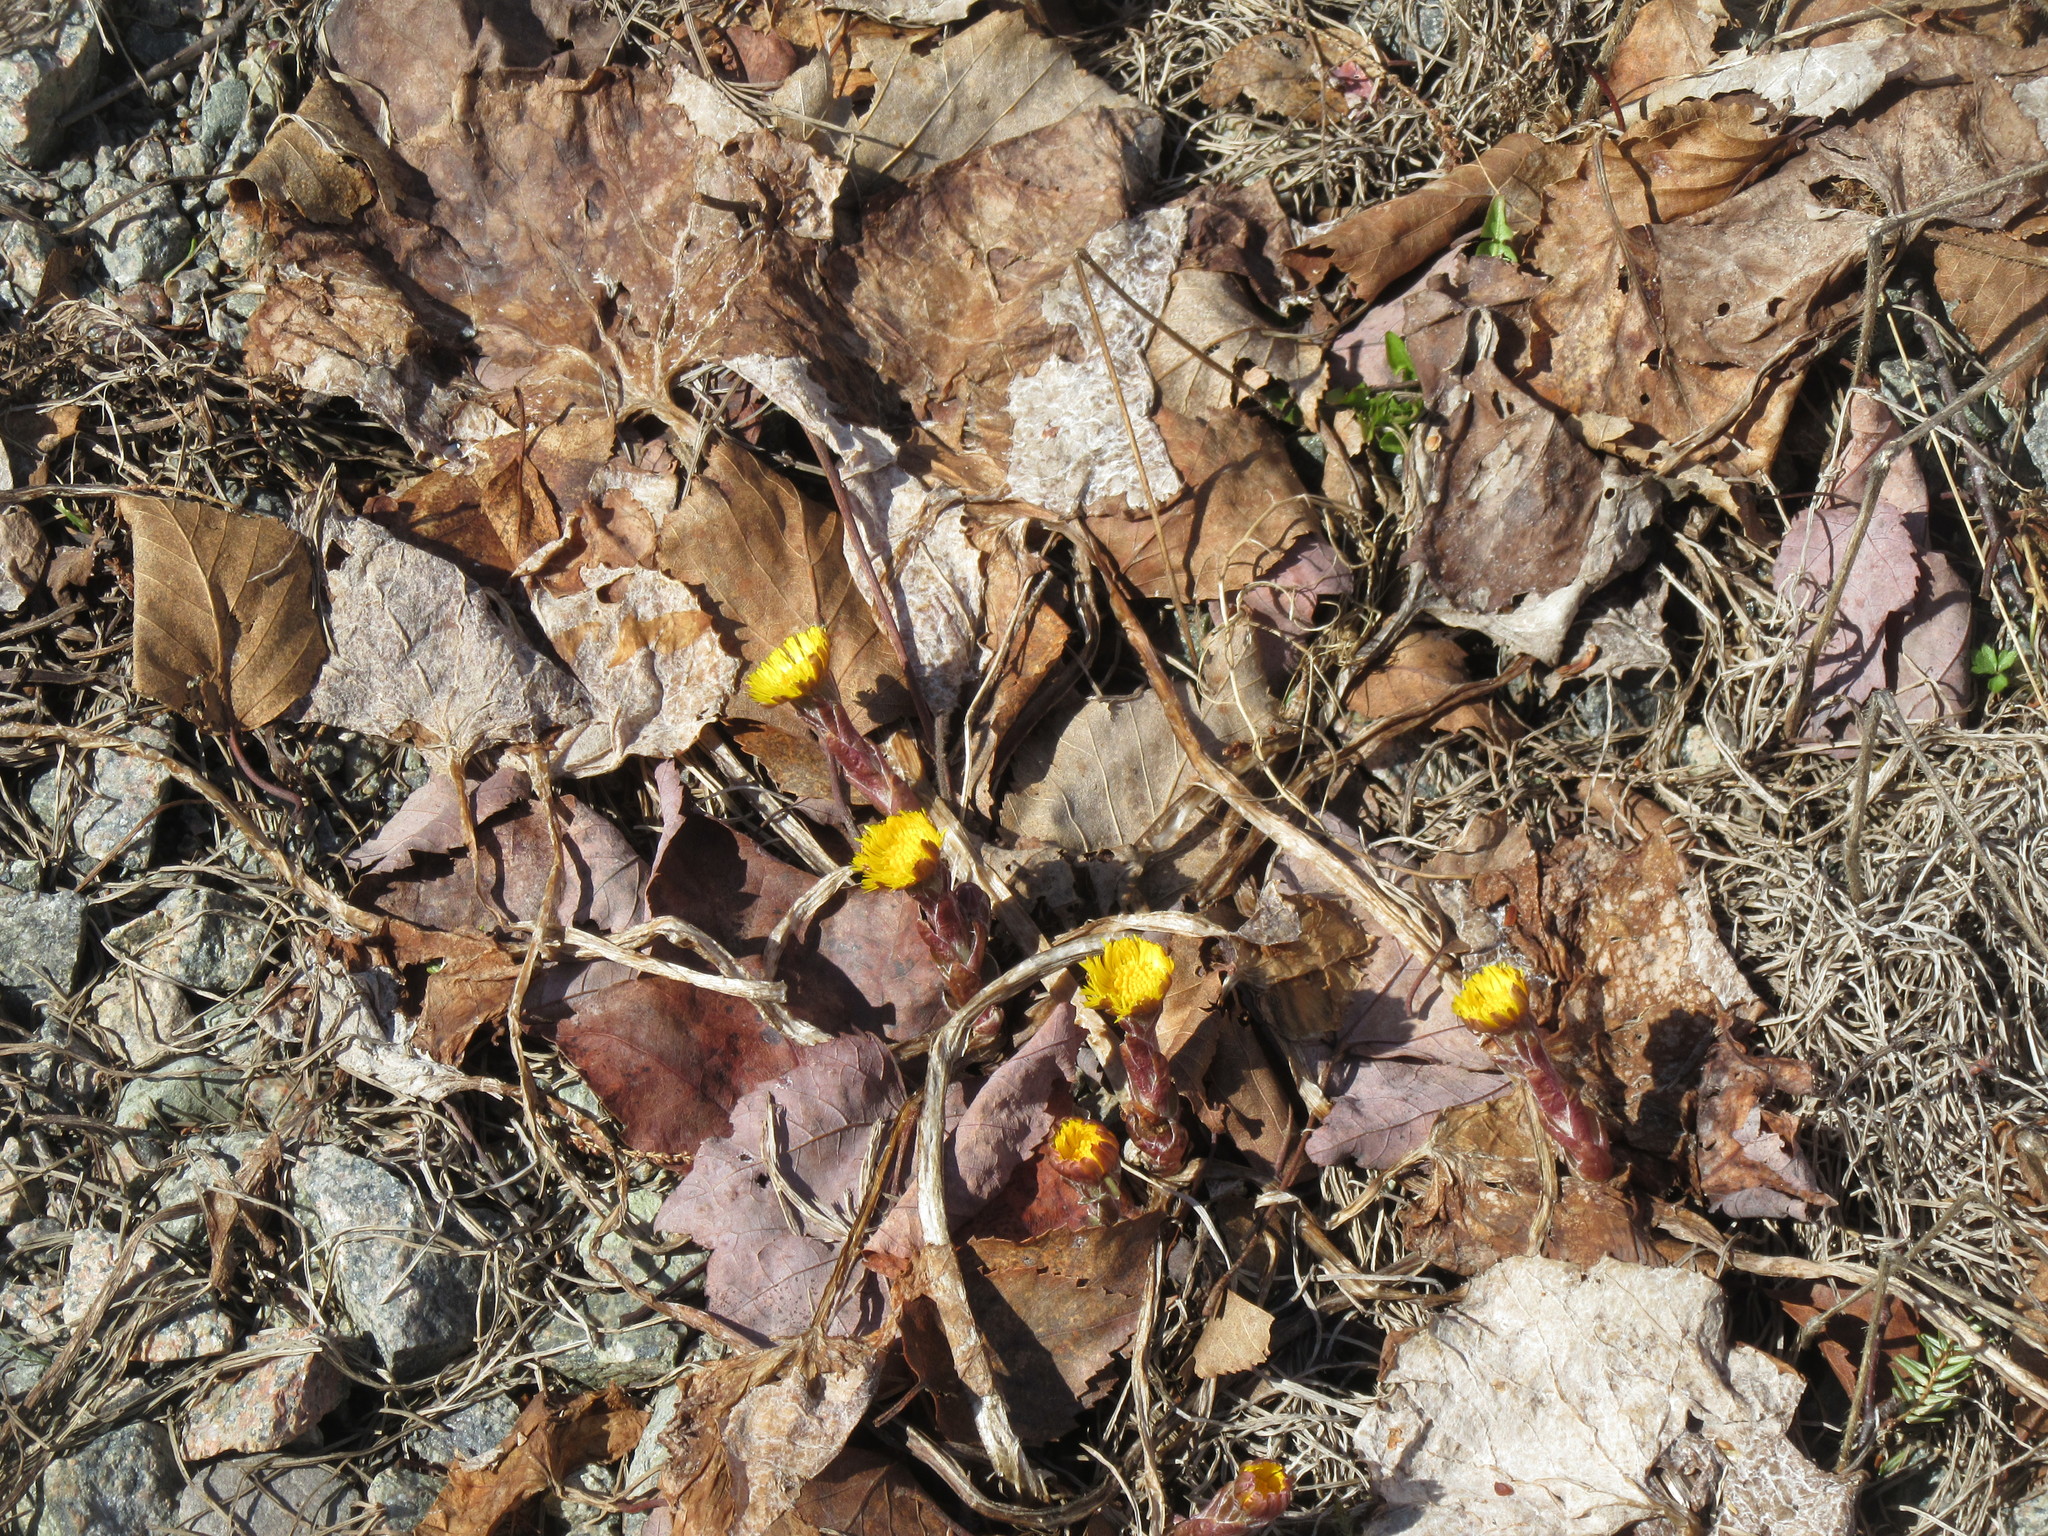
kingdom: Plantae
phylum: Tracheophyta
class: Magnoliopsida
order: Asterales
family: Asteraceae
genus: Tussilago
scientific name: Tussilago farfara
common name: Coltsfoot
